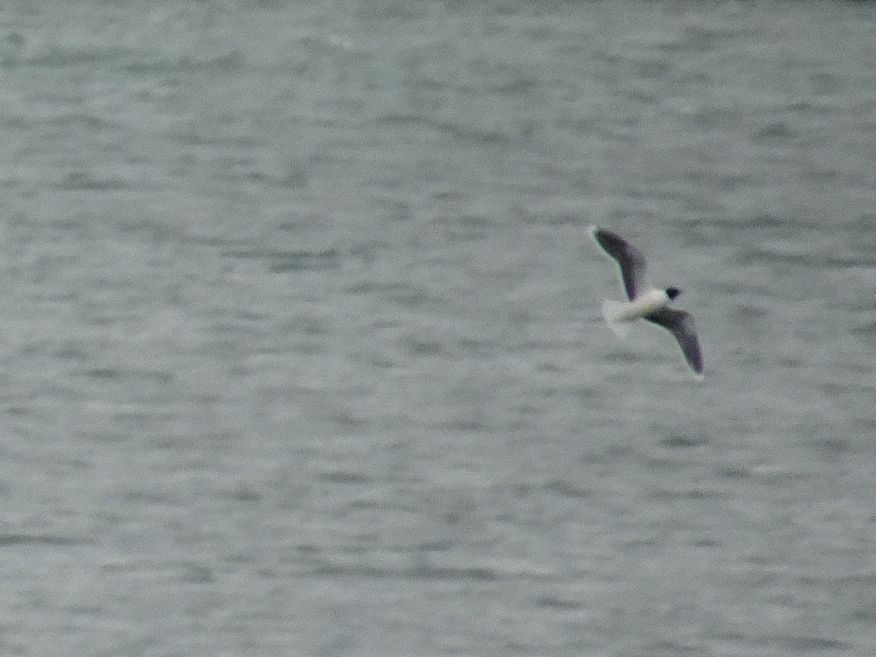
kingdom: Animalia
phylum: Chordata
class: Aves
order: Charadriiformes
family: Laridae
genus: Hydrocoloeus
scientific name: Hydrocoloeus minutus
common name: Little gull
